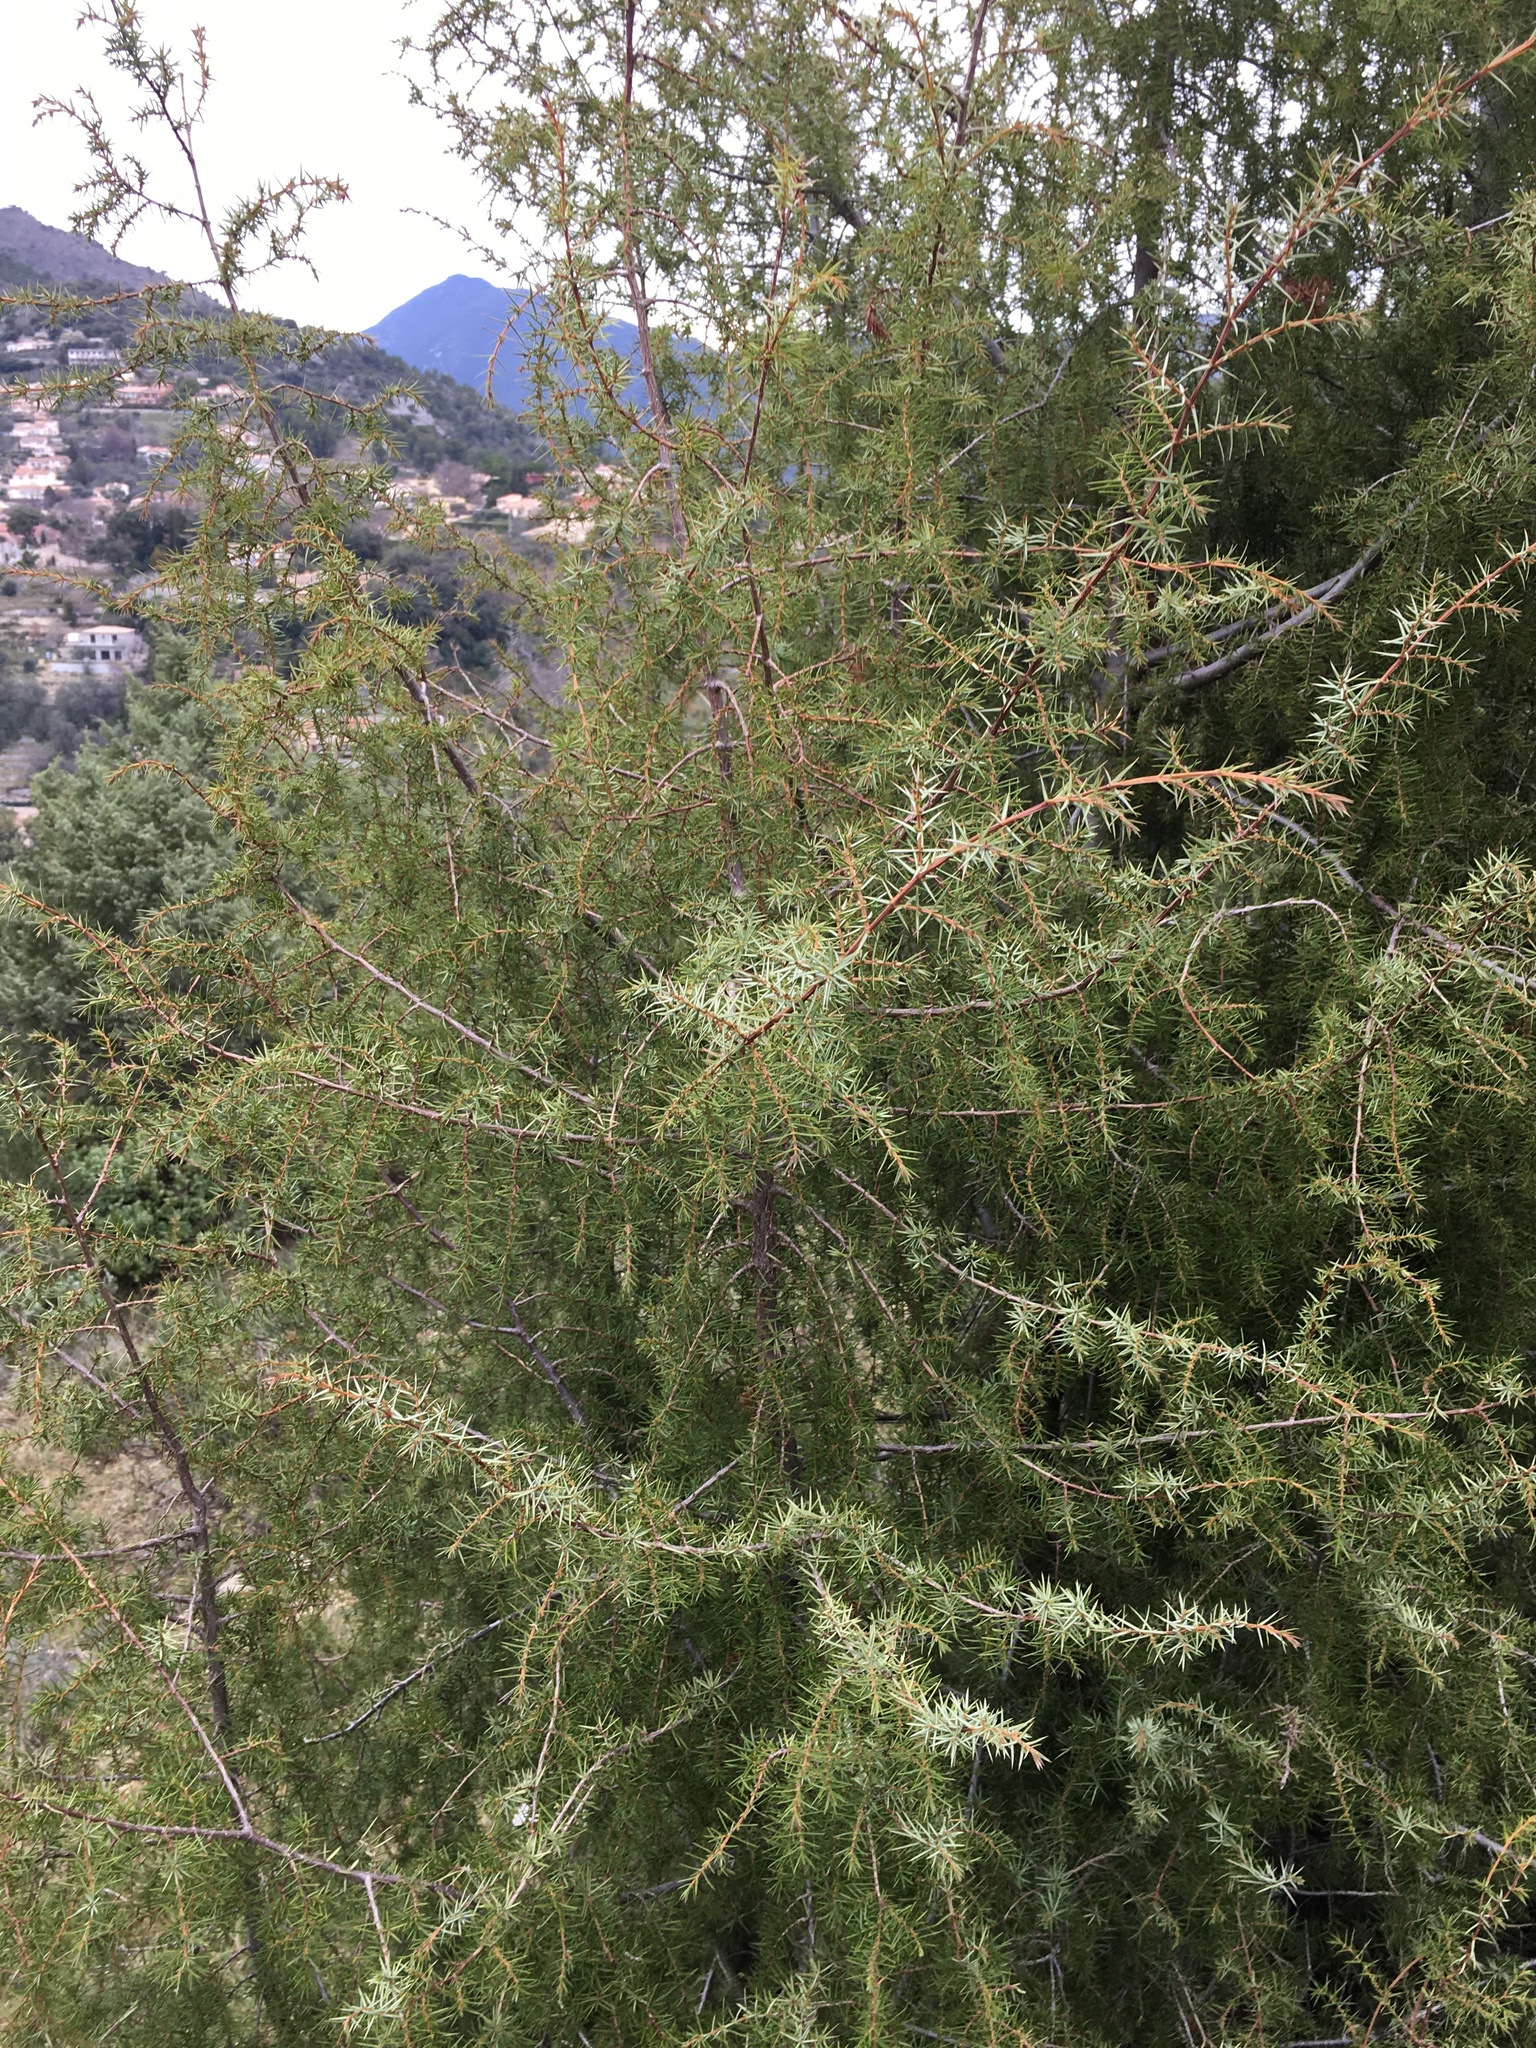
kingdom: Plantae
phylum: Tracheophyta
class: Pinopsida
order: Pinales
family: Cupressaceae
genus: Juniperus
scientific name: Juniperus communis
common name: Common juniper
